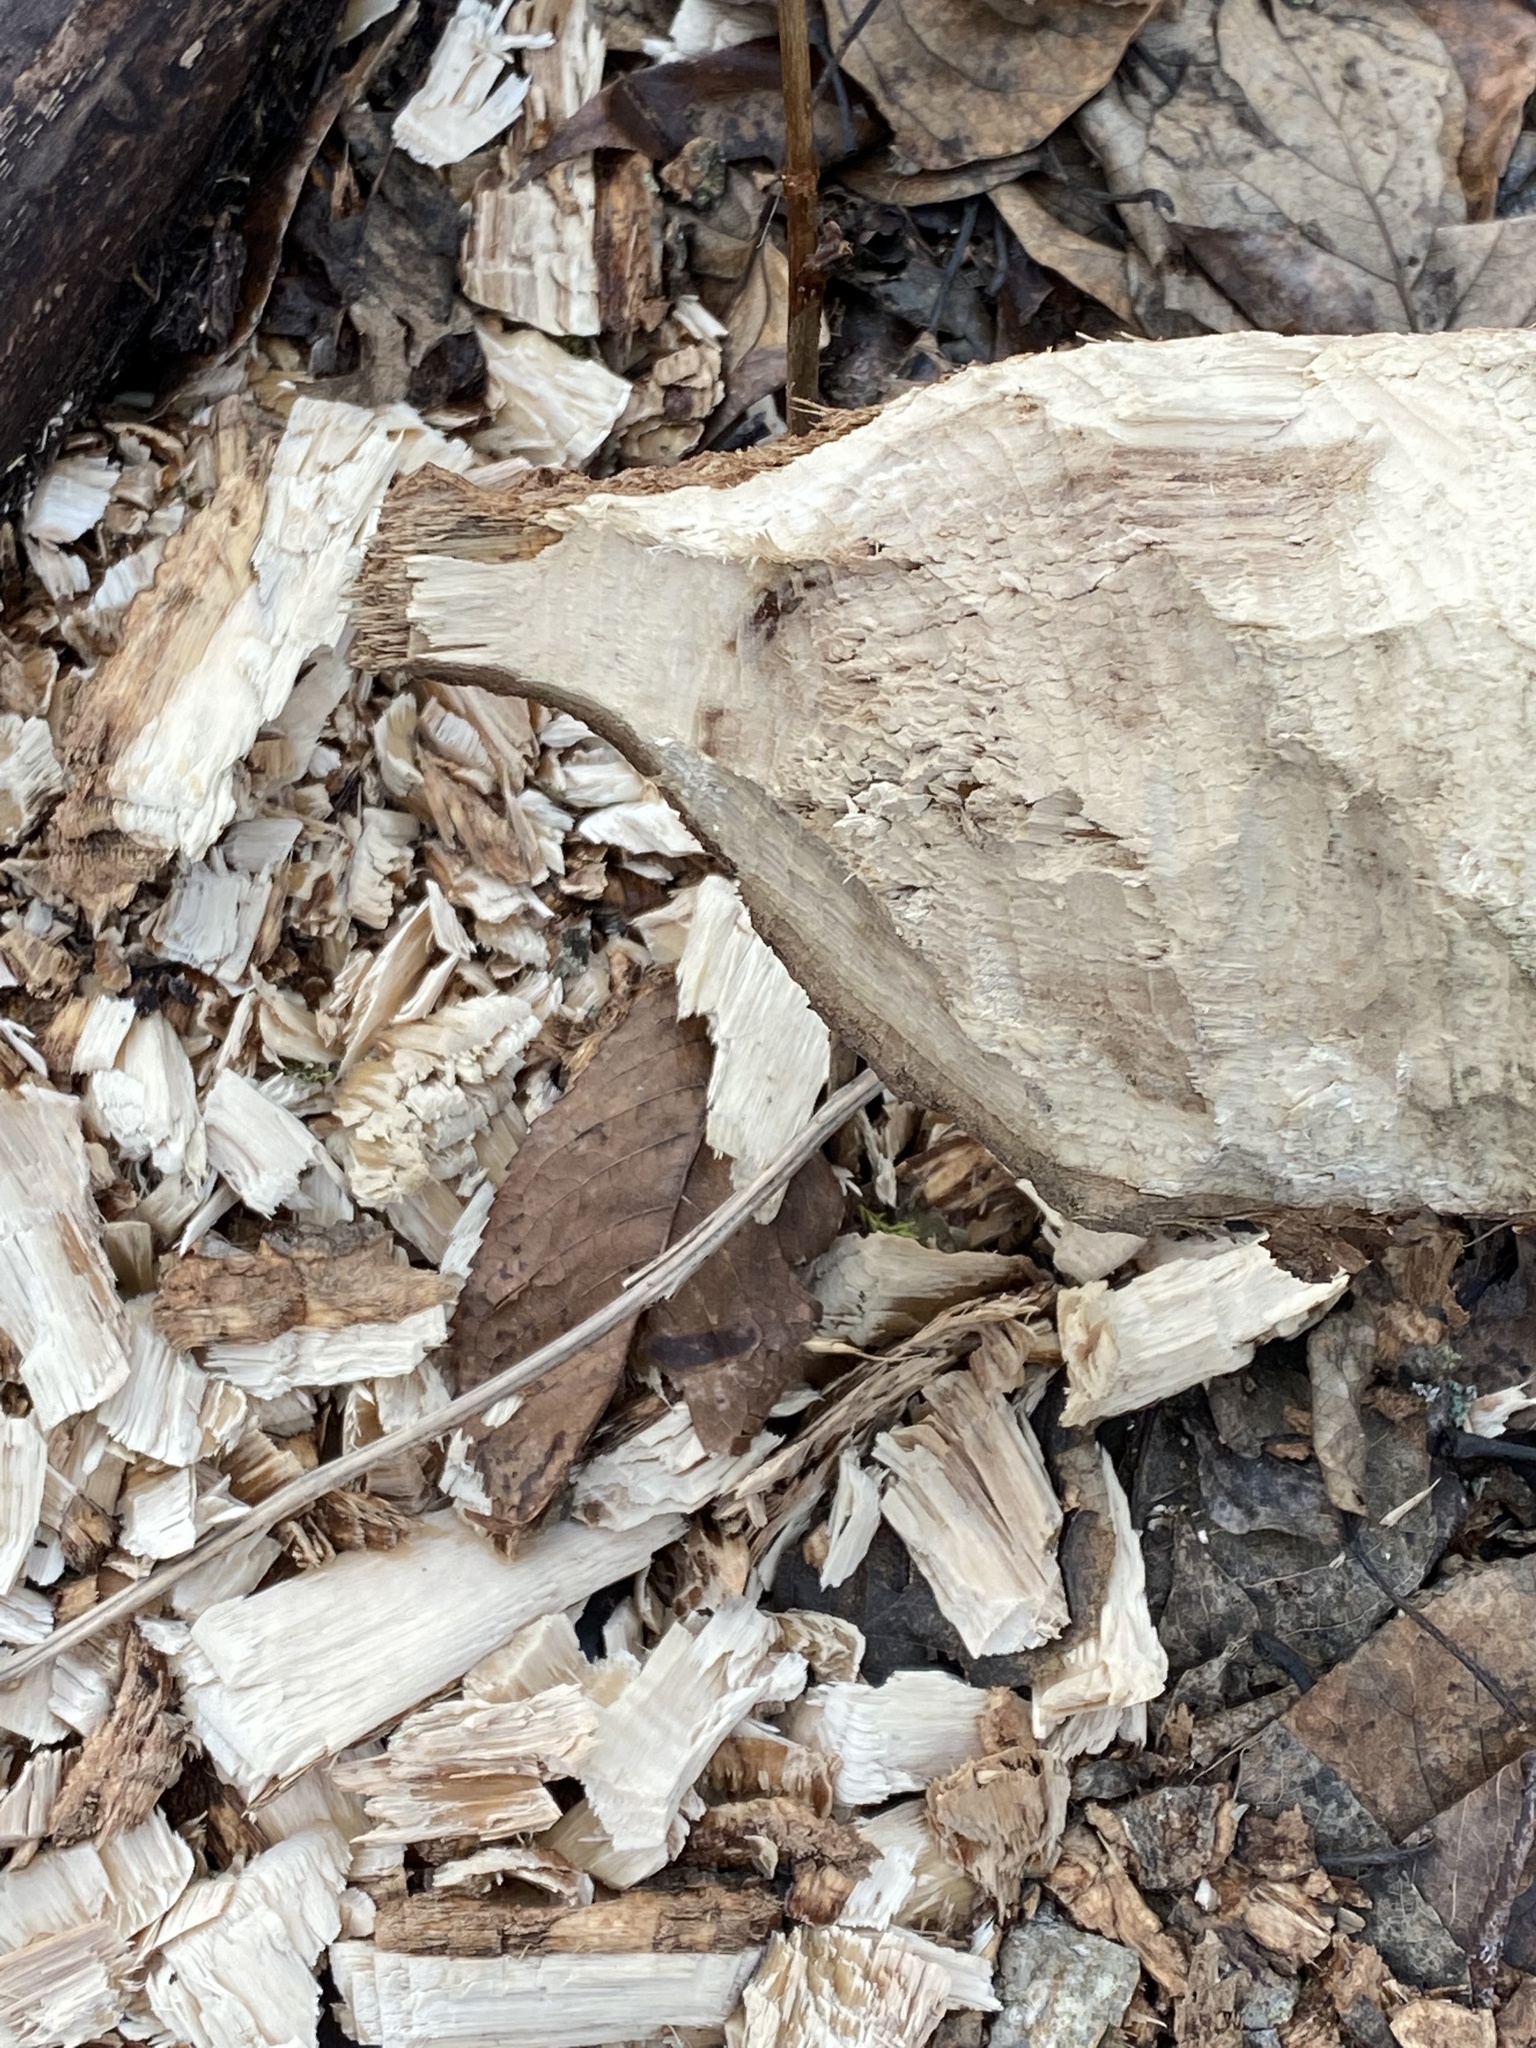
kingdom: Animalia
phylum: Chordata
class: Mammalia
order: Rodentia
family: Castoridae
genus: Castor
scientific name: Castor canadensis
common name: American beaver
